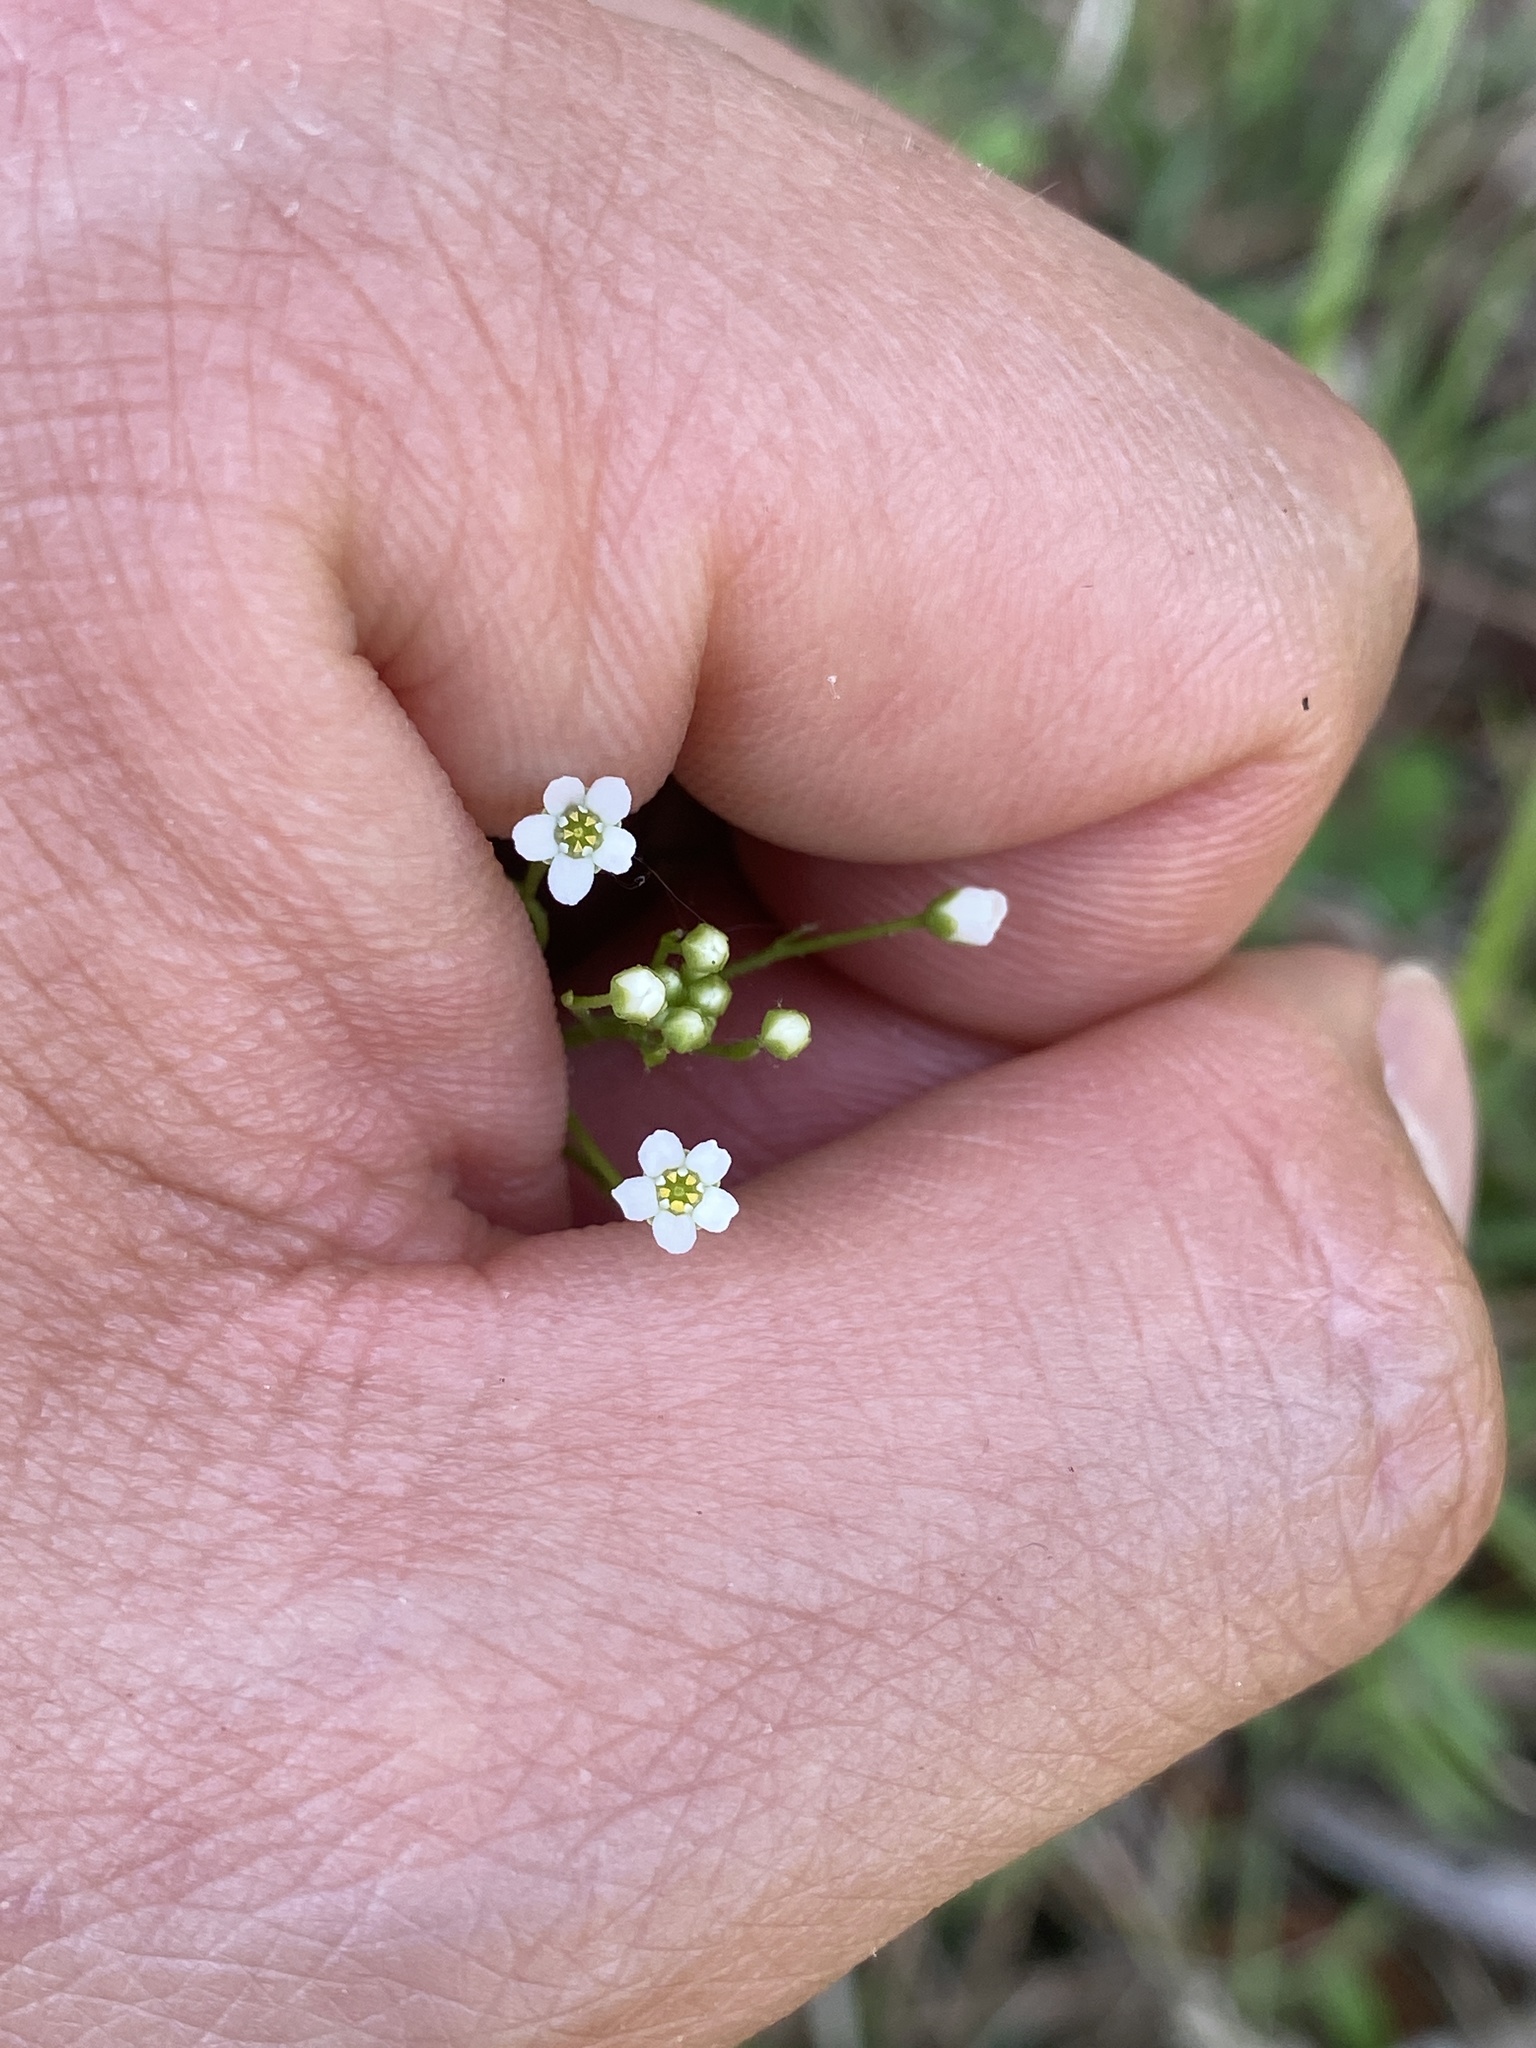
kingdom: Plantae
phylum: Tracheophyta
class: Magnoliopsida
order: Ericales
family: Primulaceae
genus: Samolus
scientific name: Samolus parviflorus
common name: False water pimpernel
